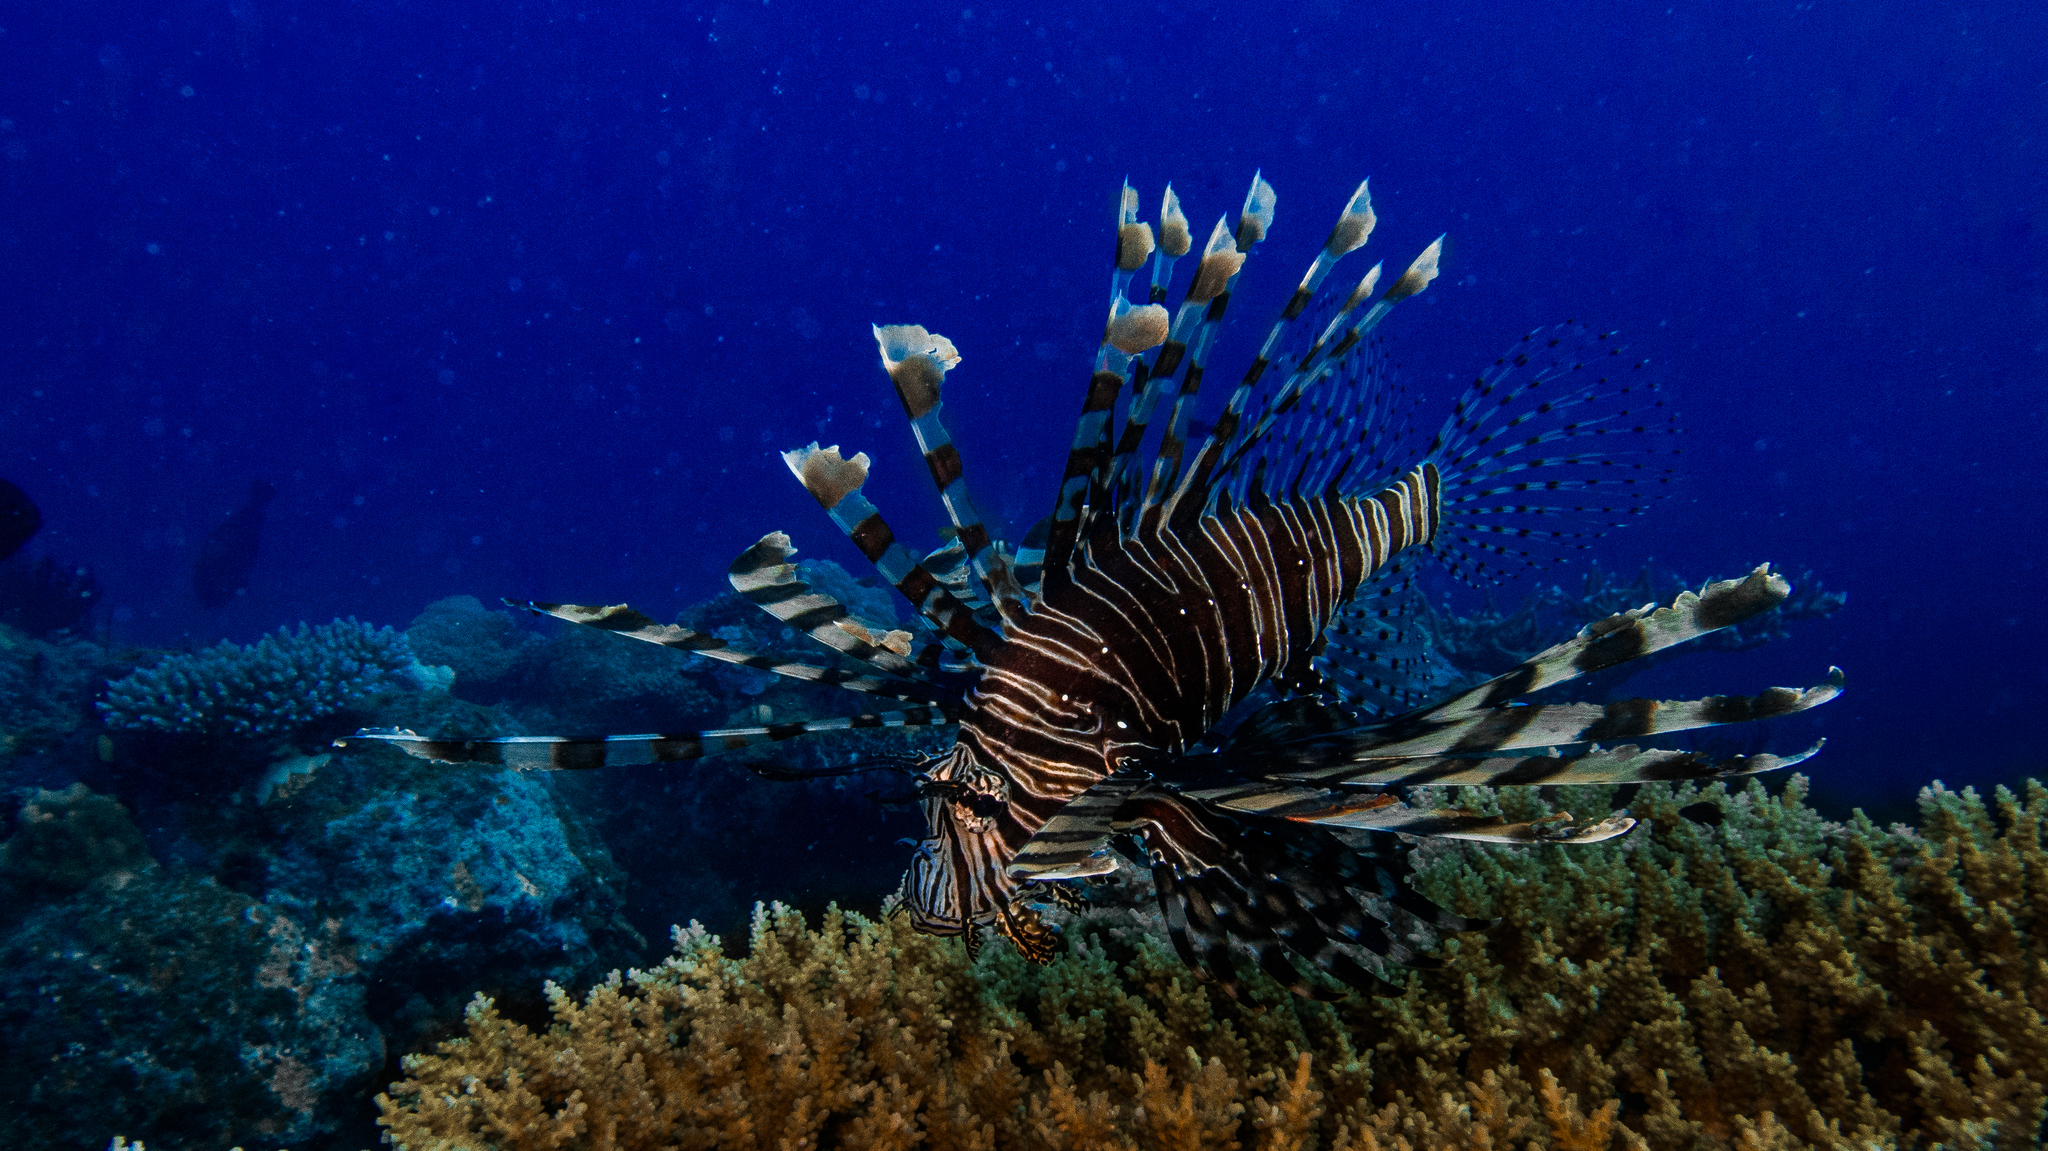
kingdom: Animalia
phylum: Chordata
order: Scorpaeniformes
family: Scorpaenidae
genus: Pterois
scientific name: Pterois volitans
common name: Lionfish
